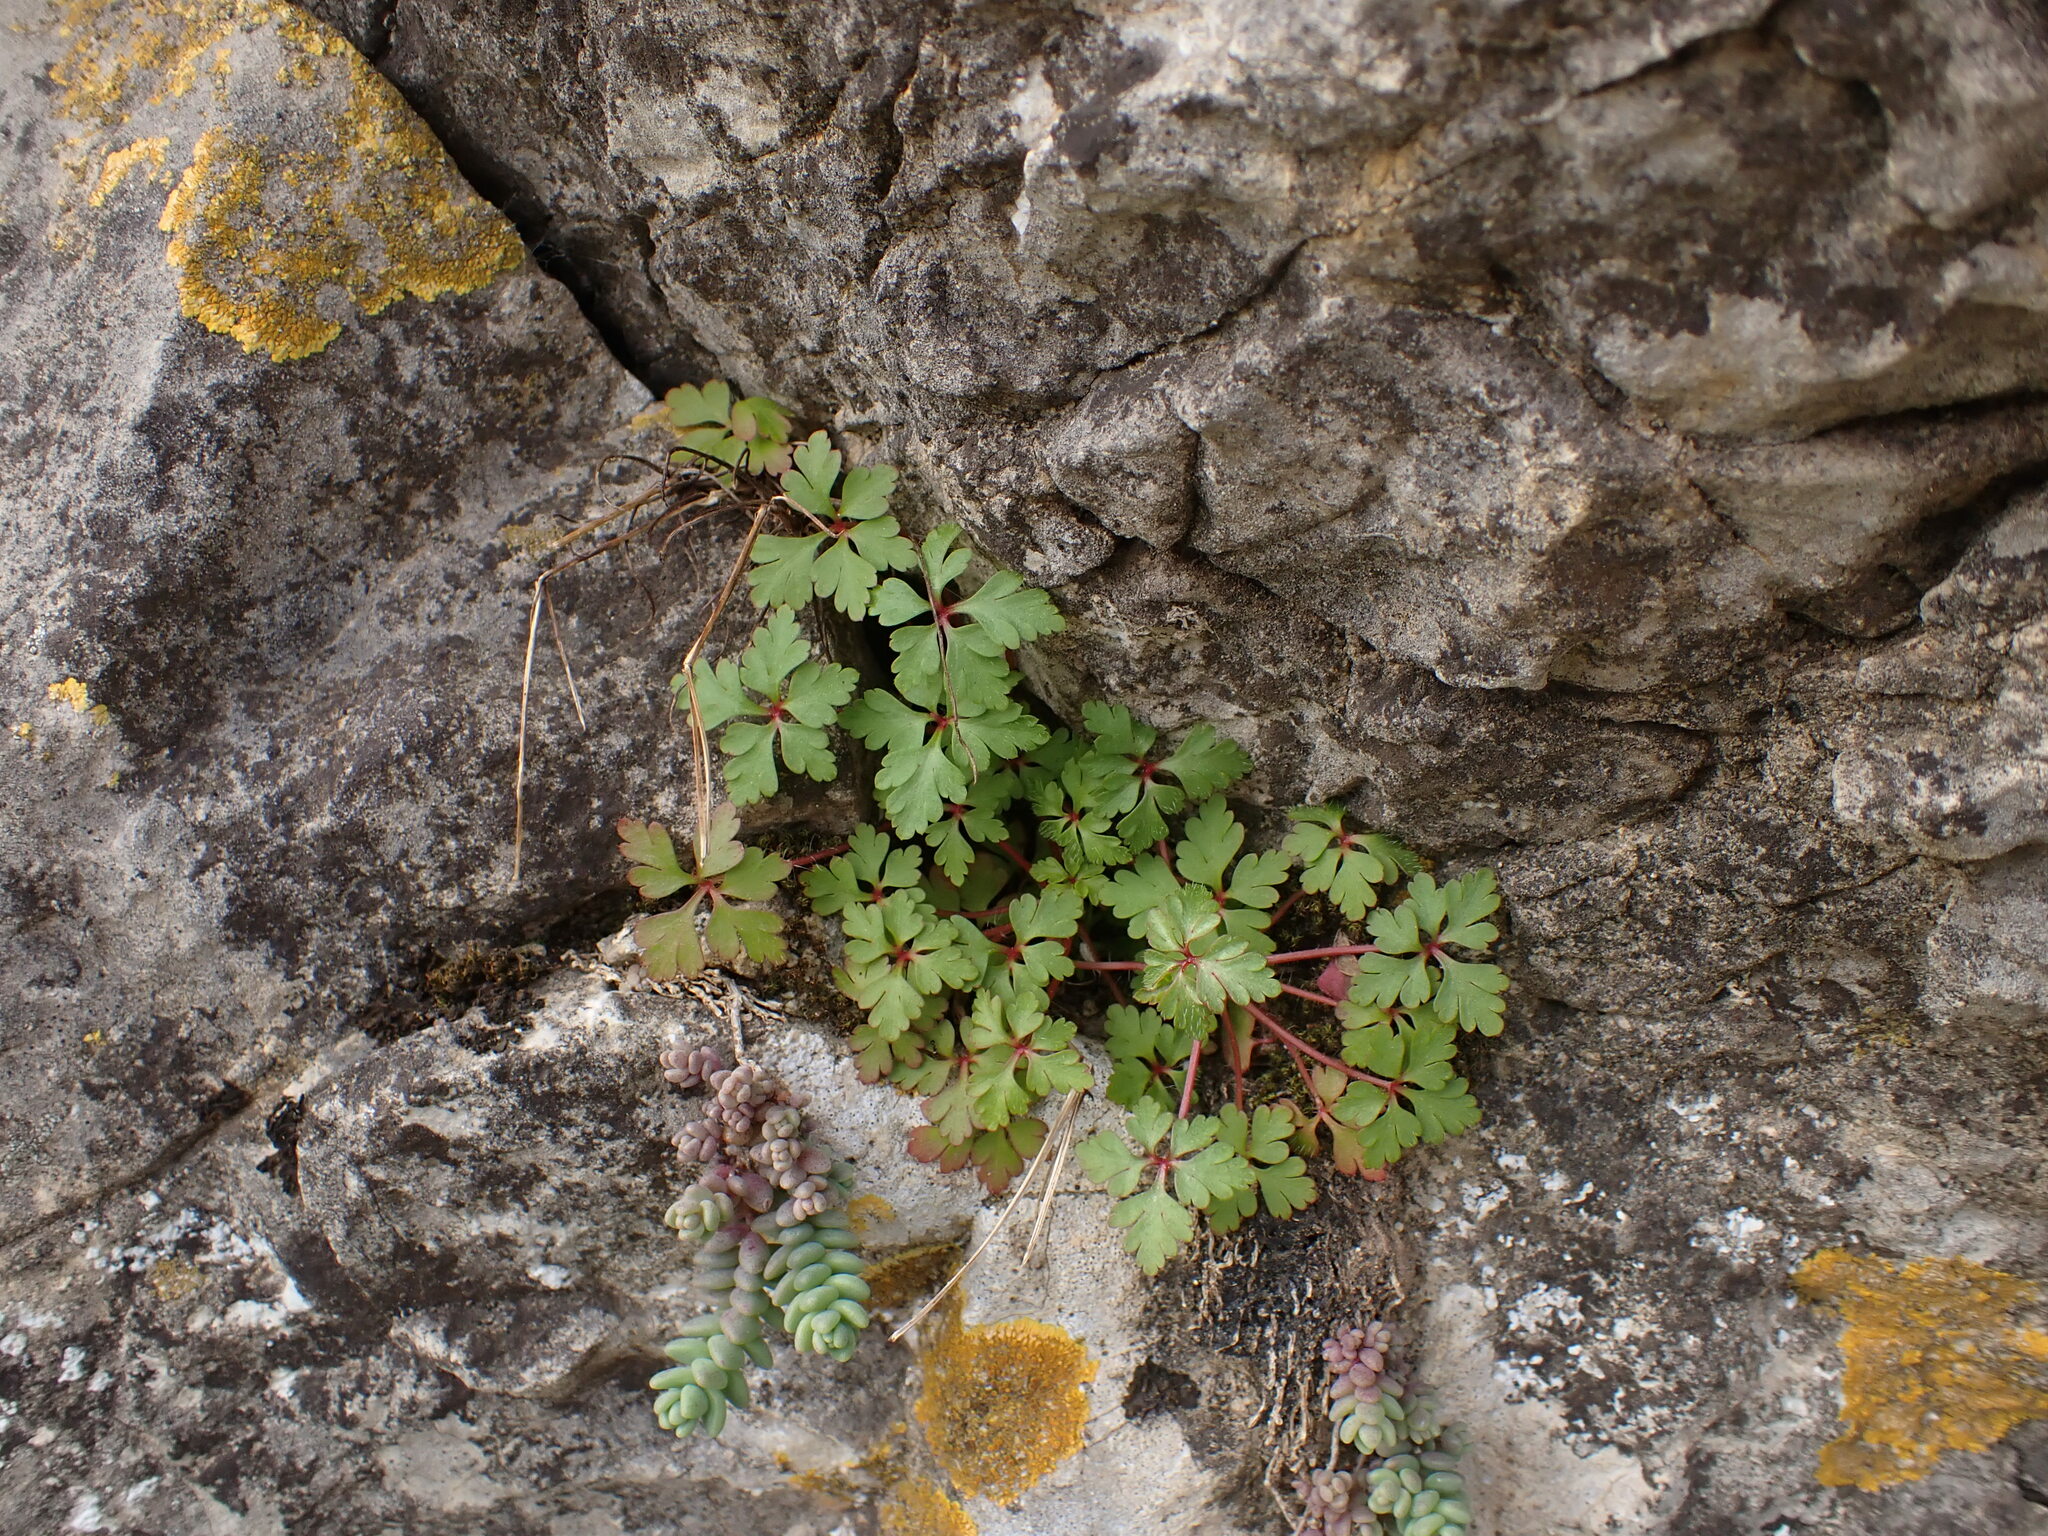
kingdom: Plantae
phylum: Tracheophyta
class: Magnoliopsida
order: Geraniales
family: Geraniaceae
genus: Geranium
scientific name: Geranium purpureum
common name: Little-robin
